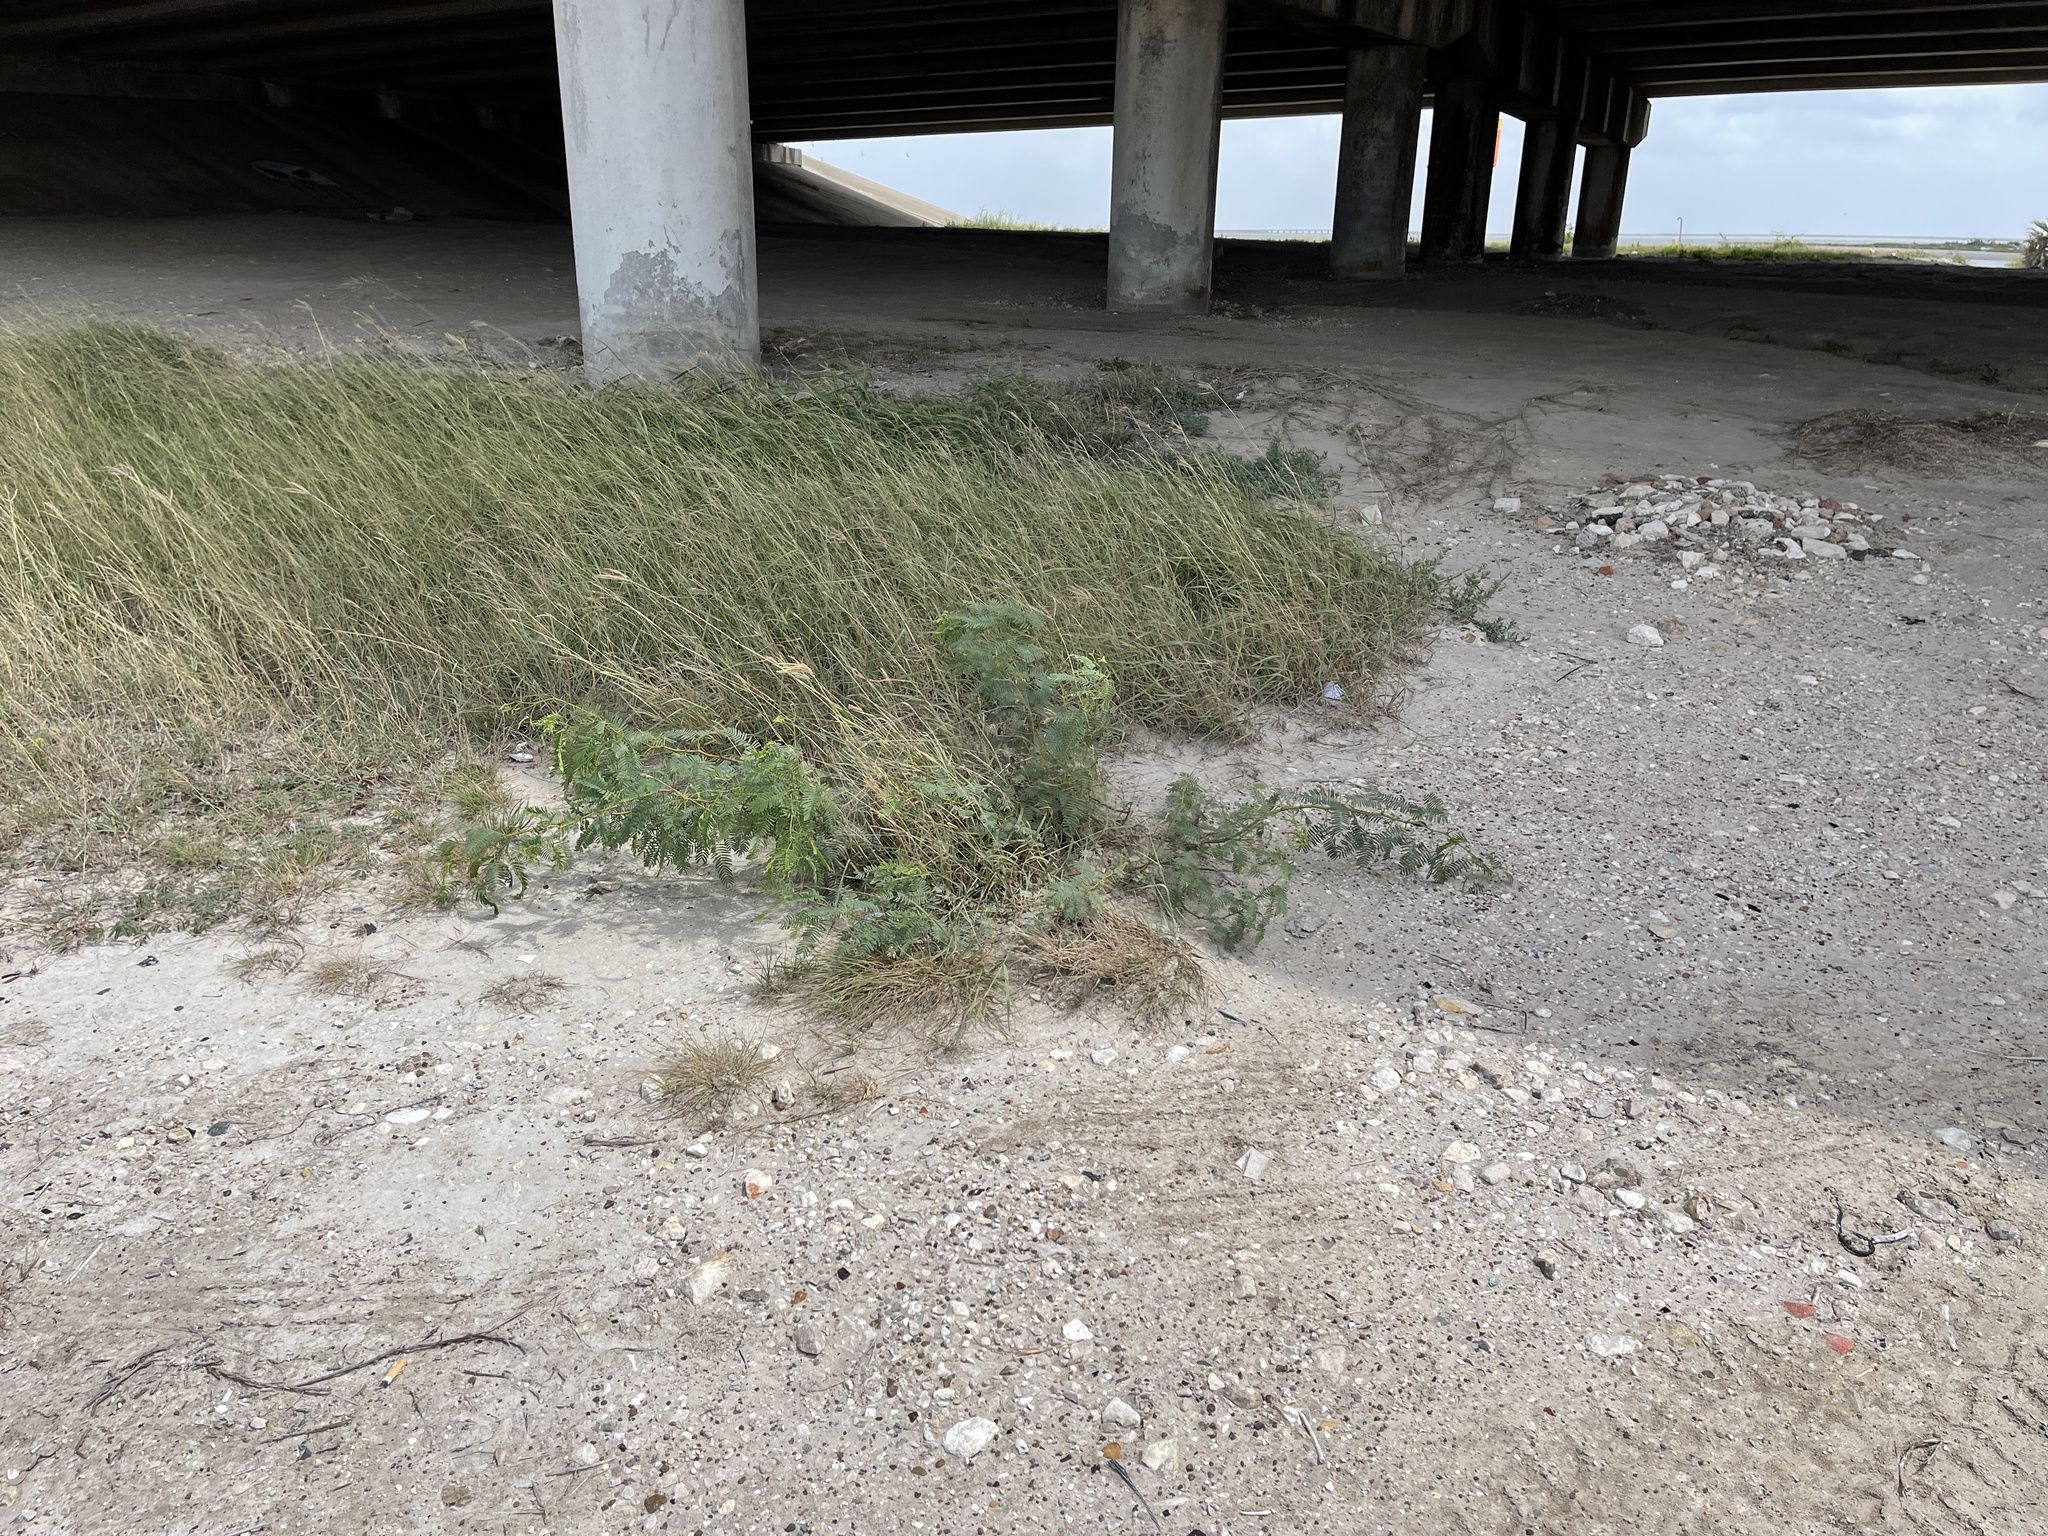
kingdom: Plantae
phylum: Tracheophyta
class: Magnoliopsida
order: Fabales
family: Fabaceae
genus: Prosopis
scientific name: Prosopis glandulosa
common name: Honey mesquite
